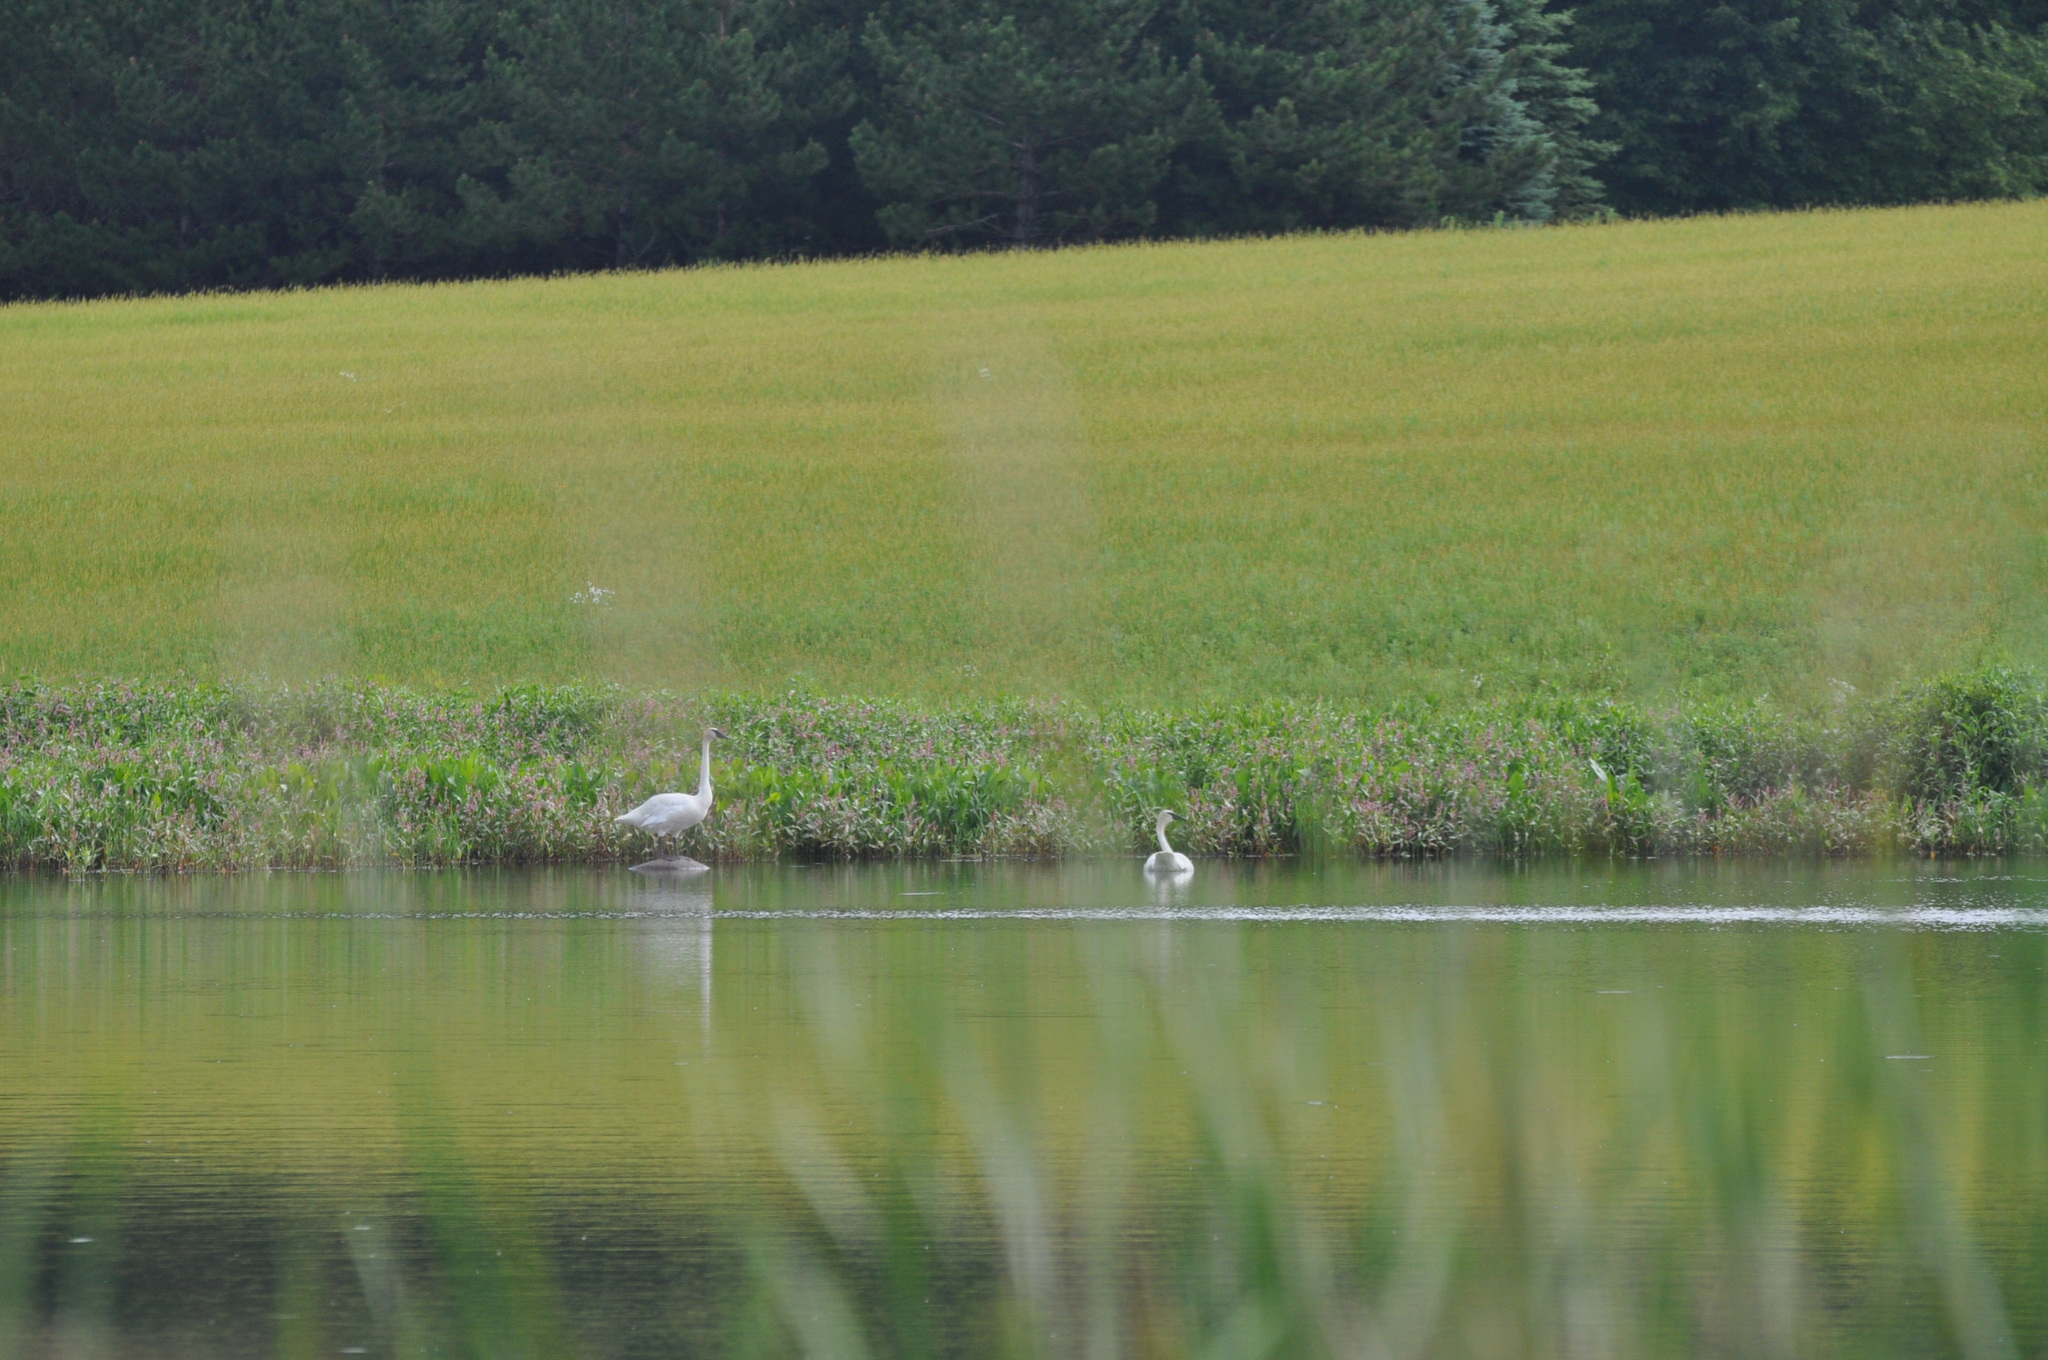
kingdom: Animalia
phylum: Chordata
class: Aves
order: Anseriformes
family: Anatidae
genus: Cygnus
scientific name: Cygnus buccinator
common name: Trumpeter swan
